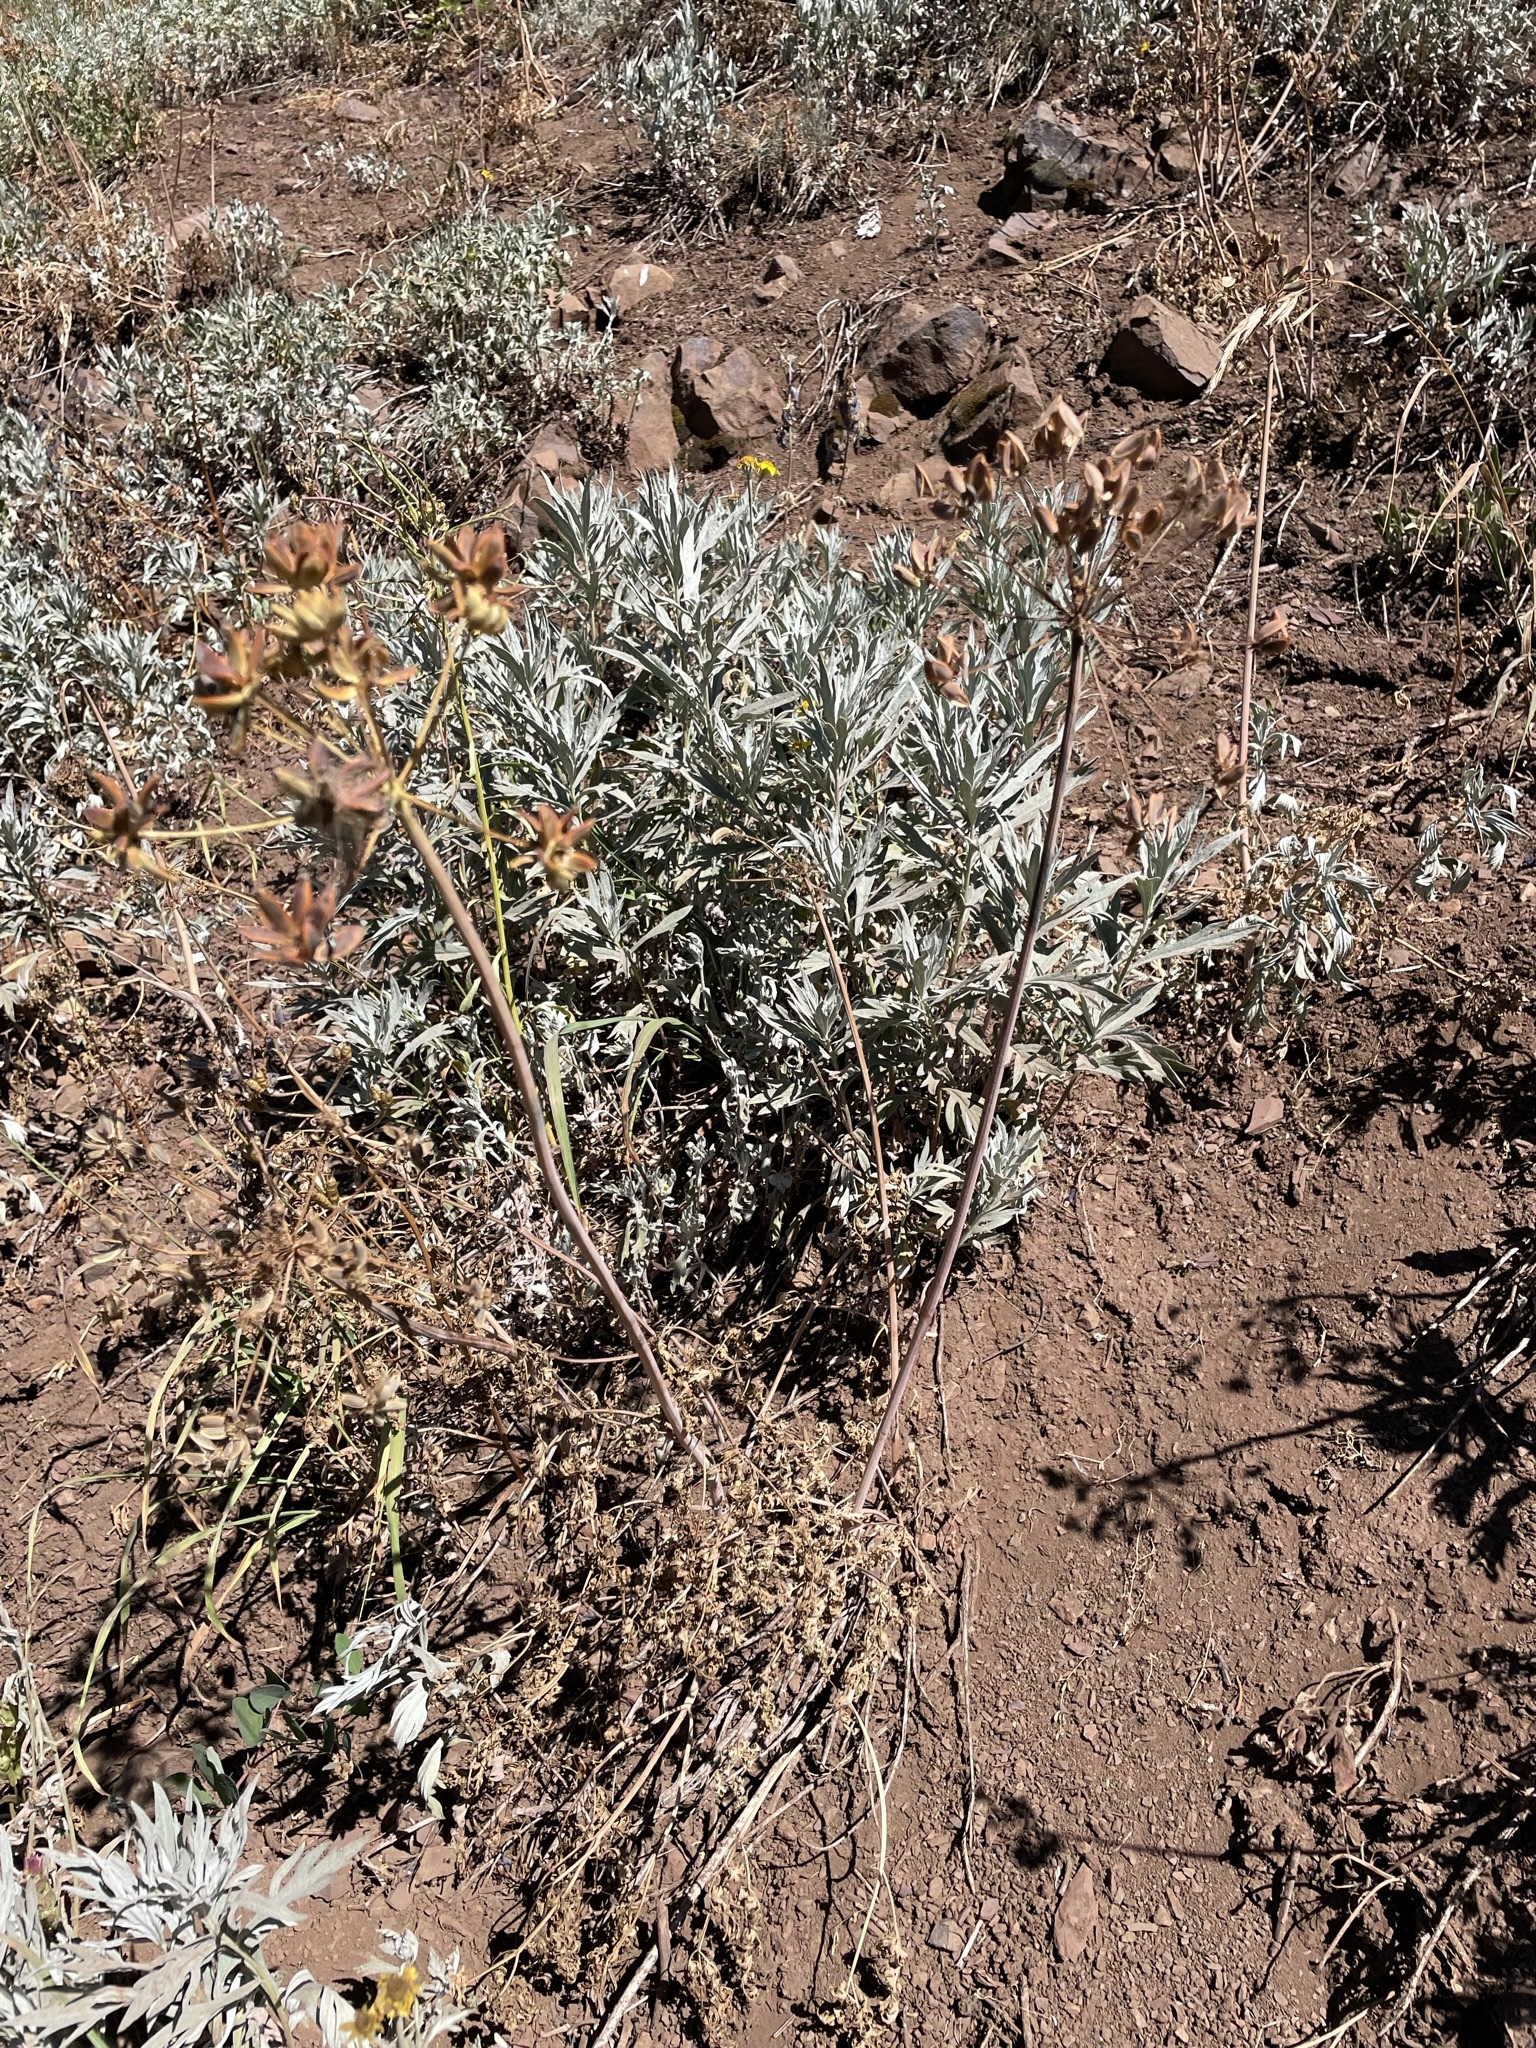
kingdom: Plantae
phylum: Tracheophyta
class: Magnoliopsida
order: Apiales
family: Apiaceae
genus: Lomatium
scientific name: Lomatium dissectum
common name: Lomatium
